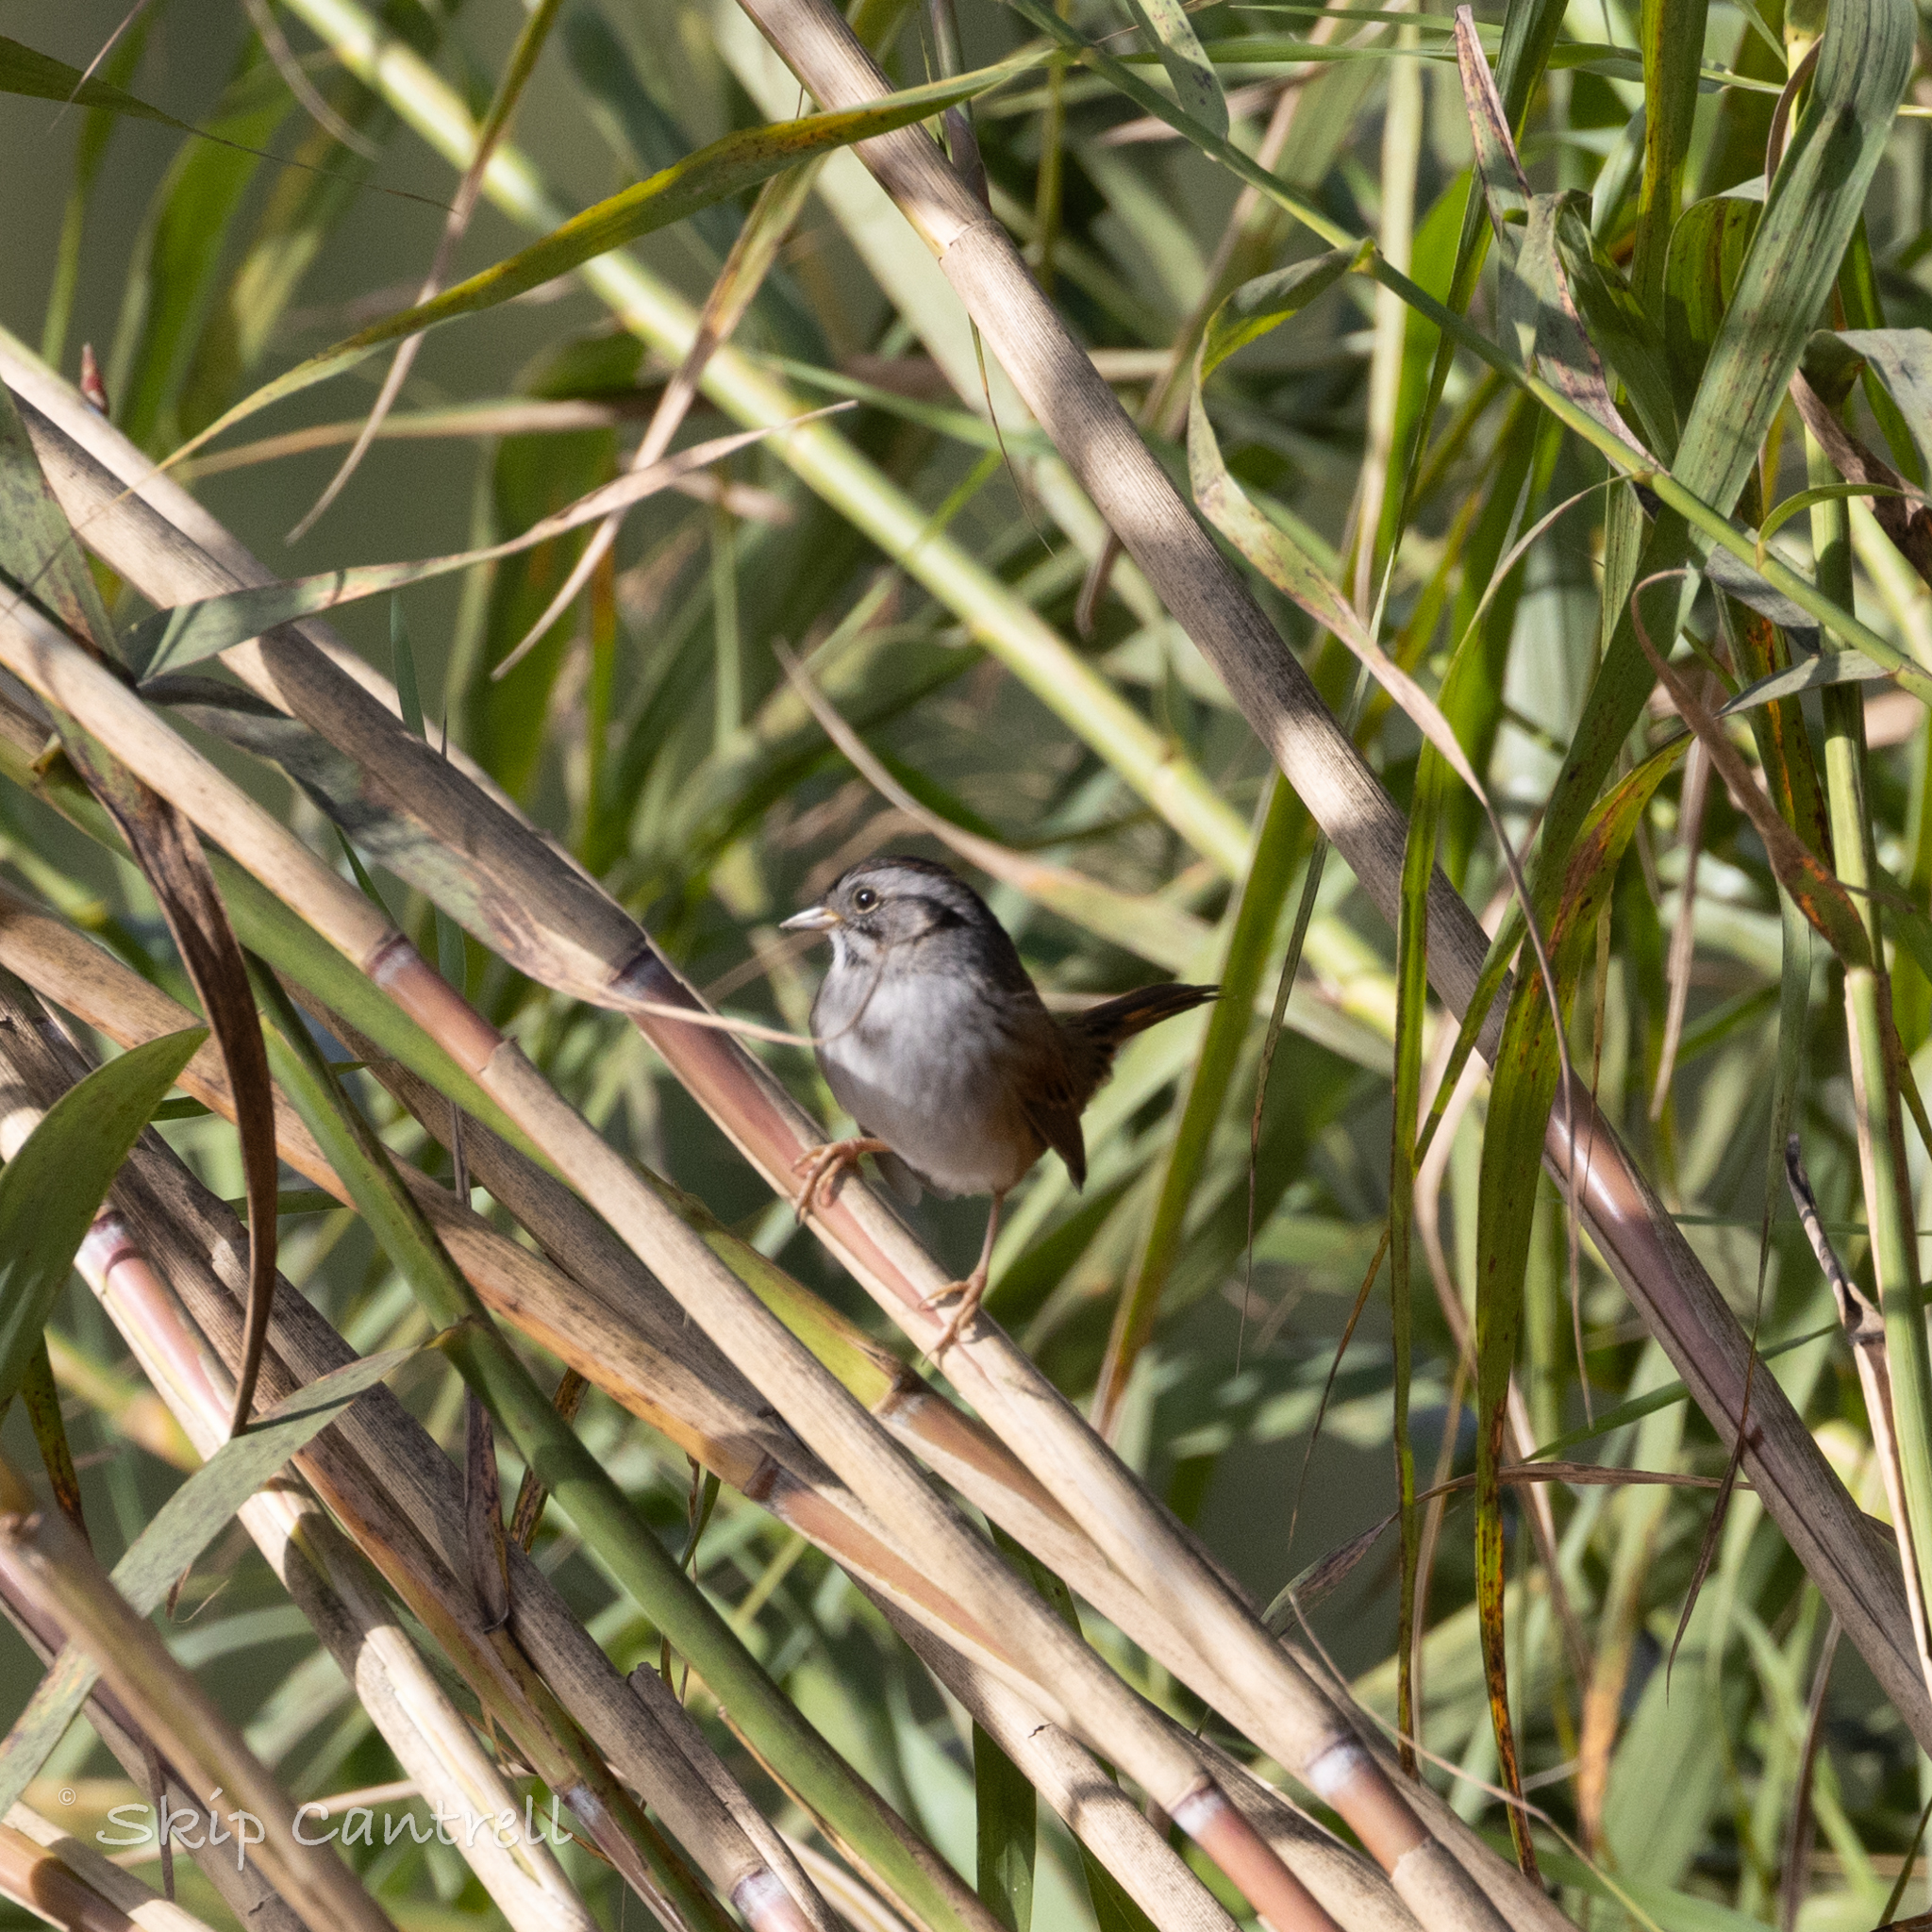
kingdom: Animalia
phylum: Chordata
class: Aves
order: Passeriformes
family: Passerellidae
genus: Melospiza
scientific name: Melospiza georgiana
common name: Swamp sparrow
